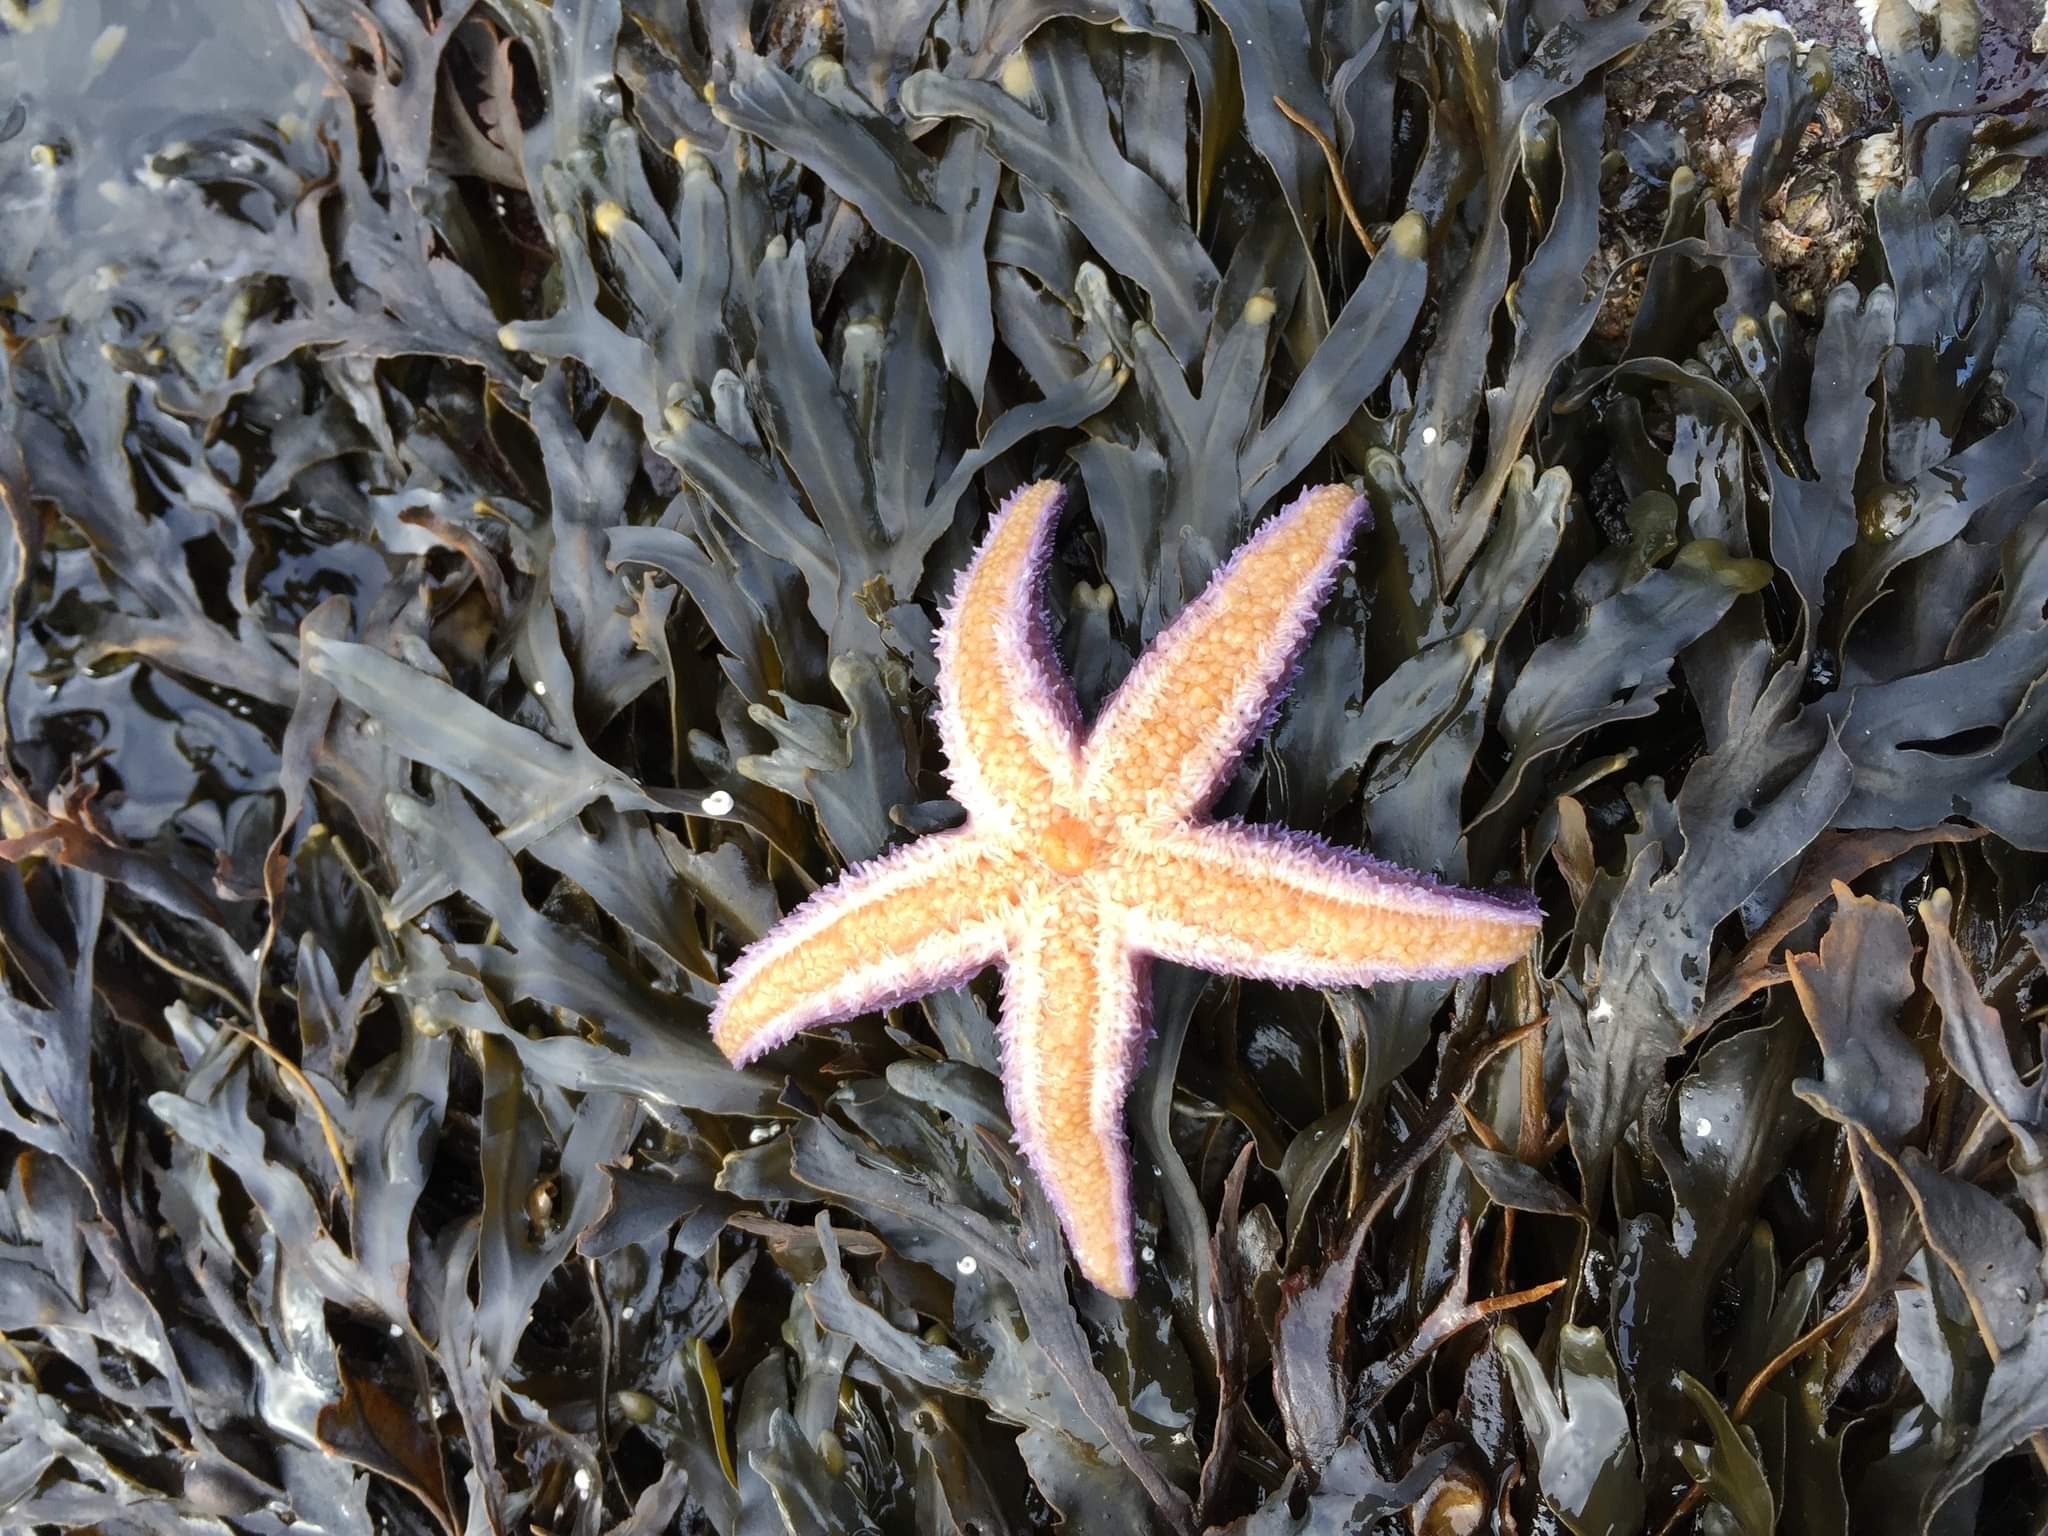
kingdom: Animalia
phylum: Echinodermata
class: Asteroidea
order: Forcipulatida
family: Asteriidae
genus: Asterias
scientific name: Asterias rubens
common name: Common starfish
